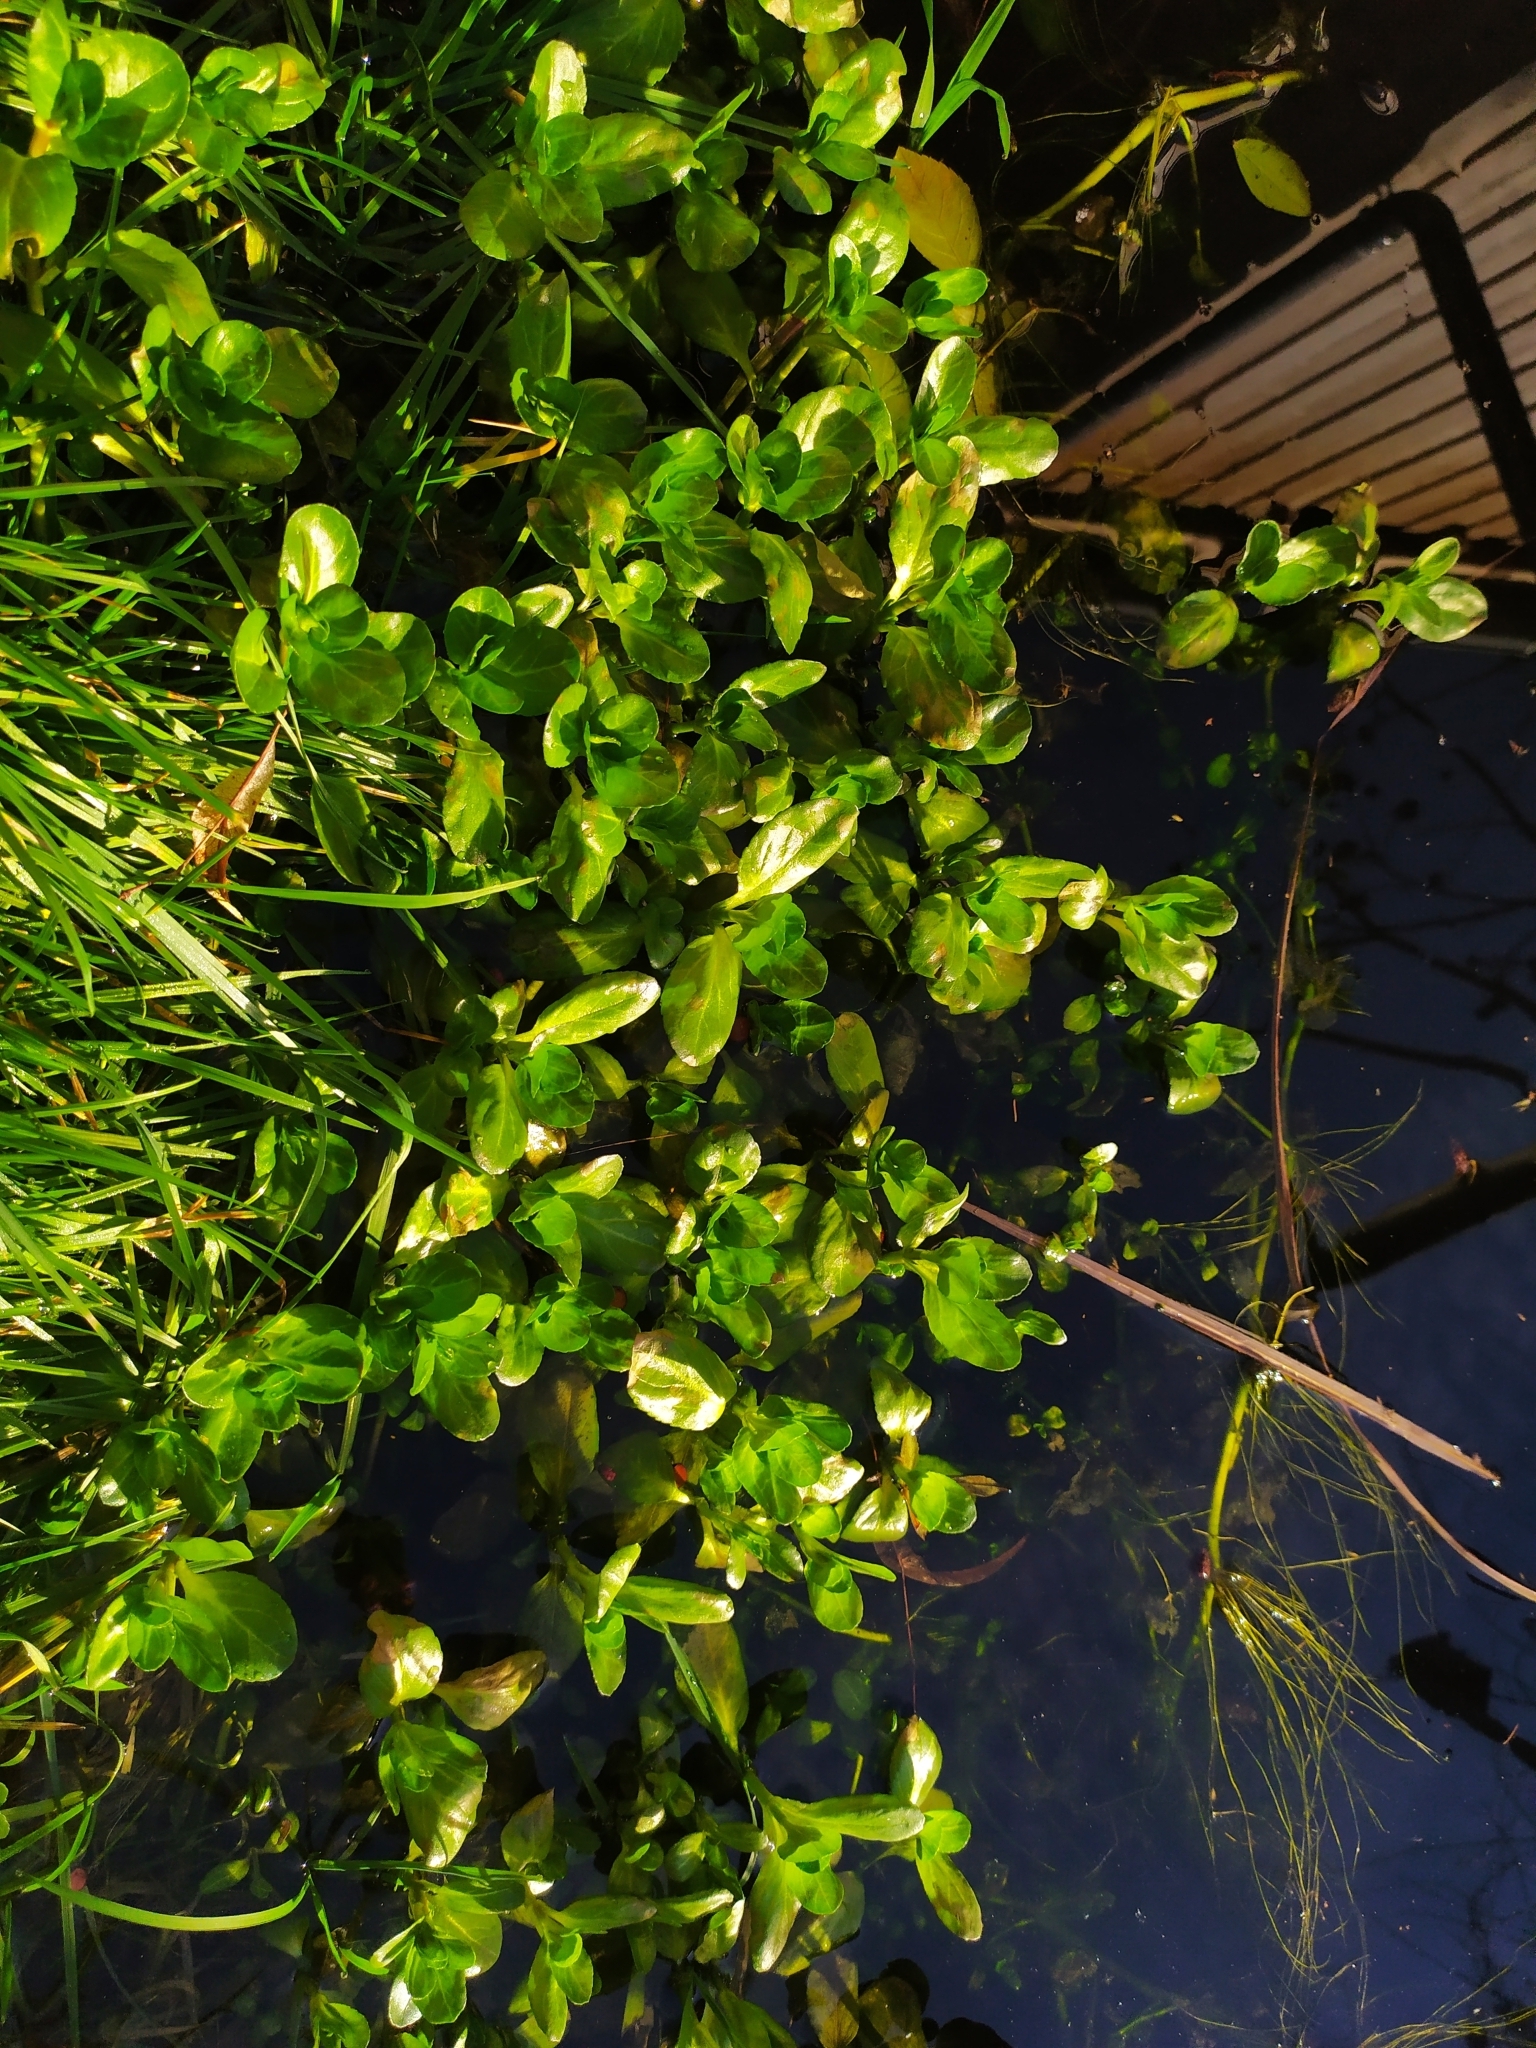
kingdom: Plantae
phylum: Tracheophyta
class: Magnoliopsida
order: Lamiales
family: Plantaginaceae
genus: Veronica
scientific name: Veronica beccabunga
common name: Brooklime
